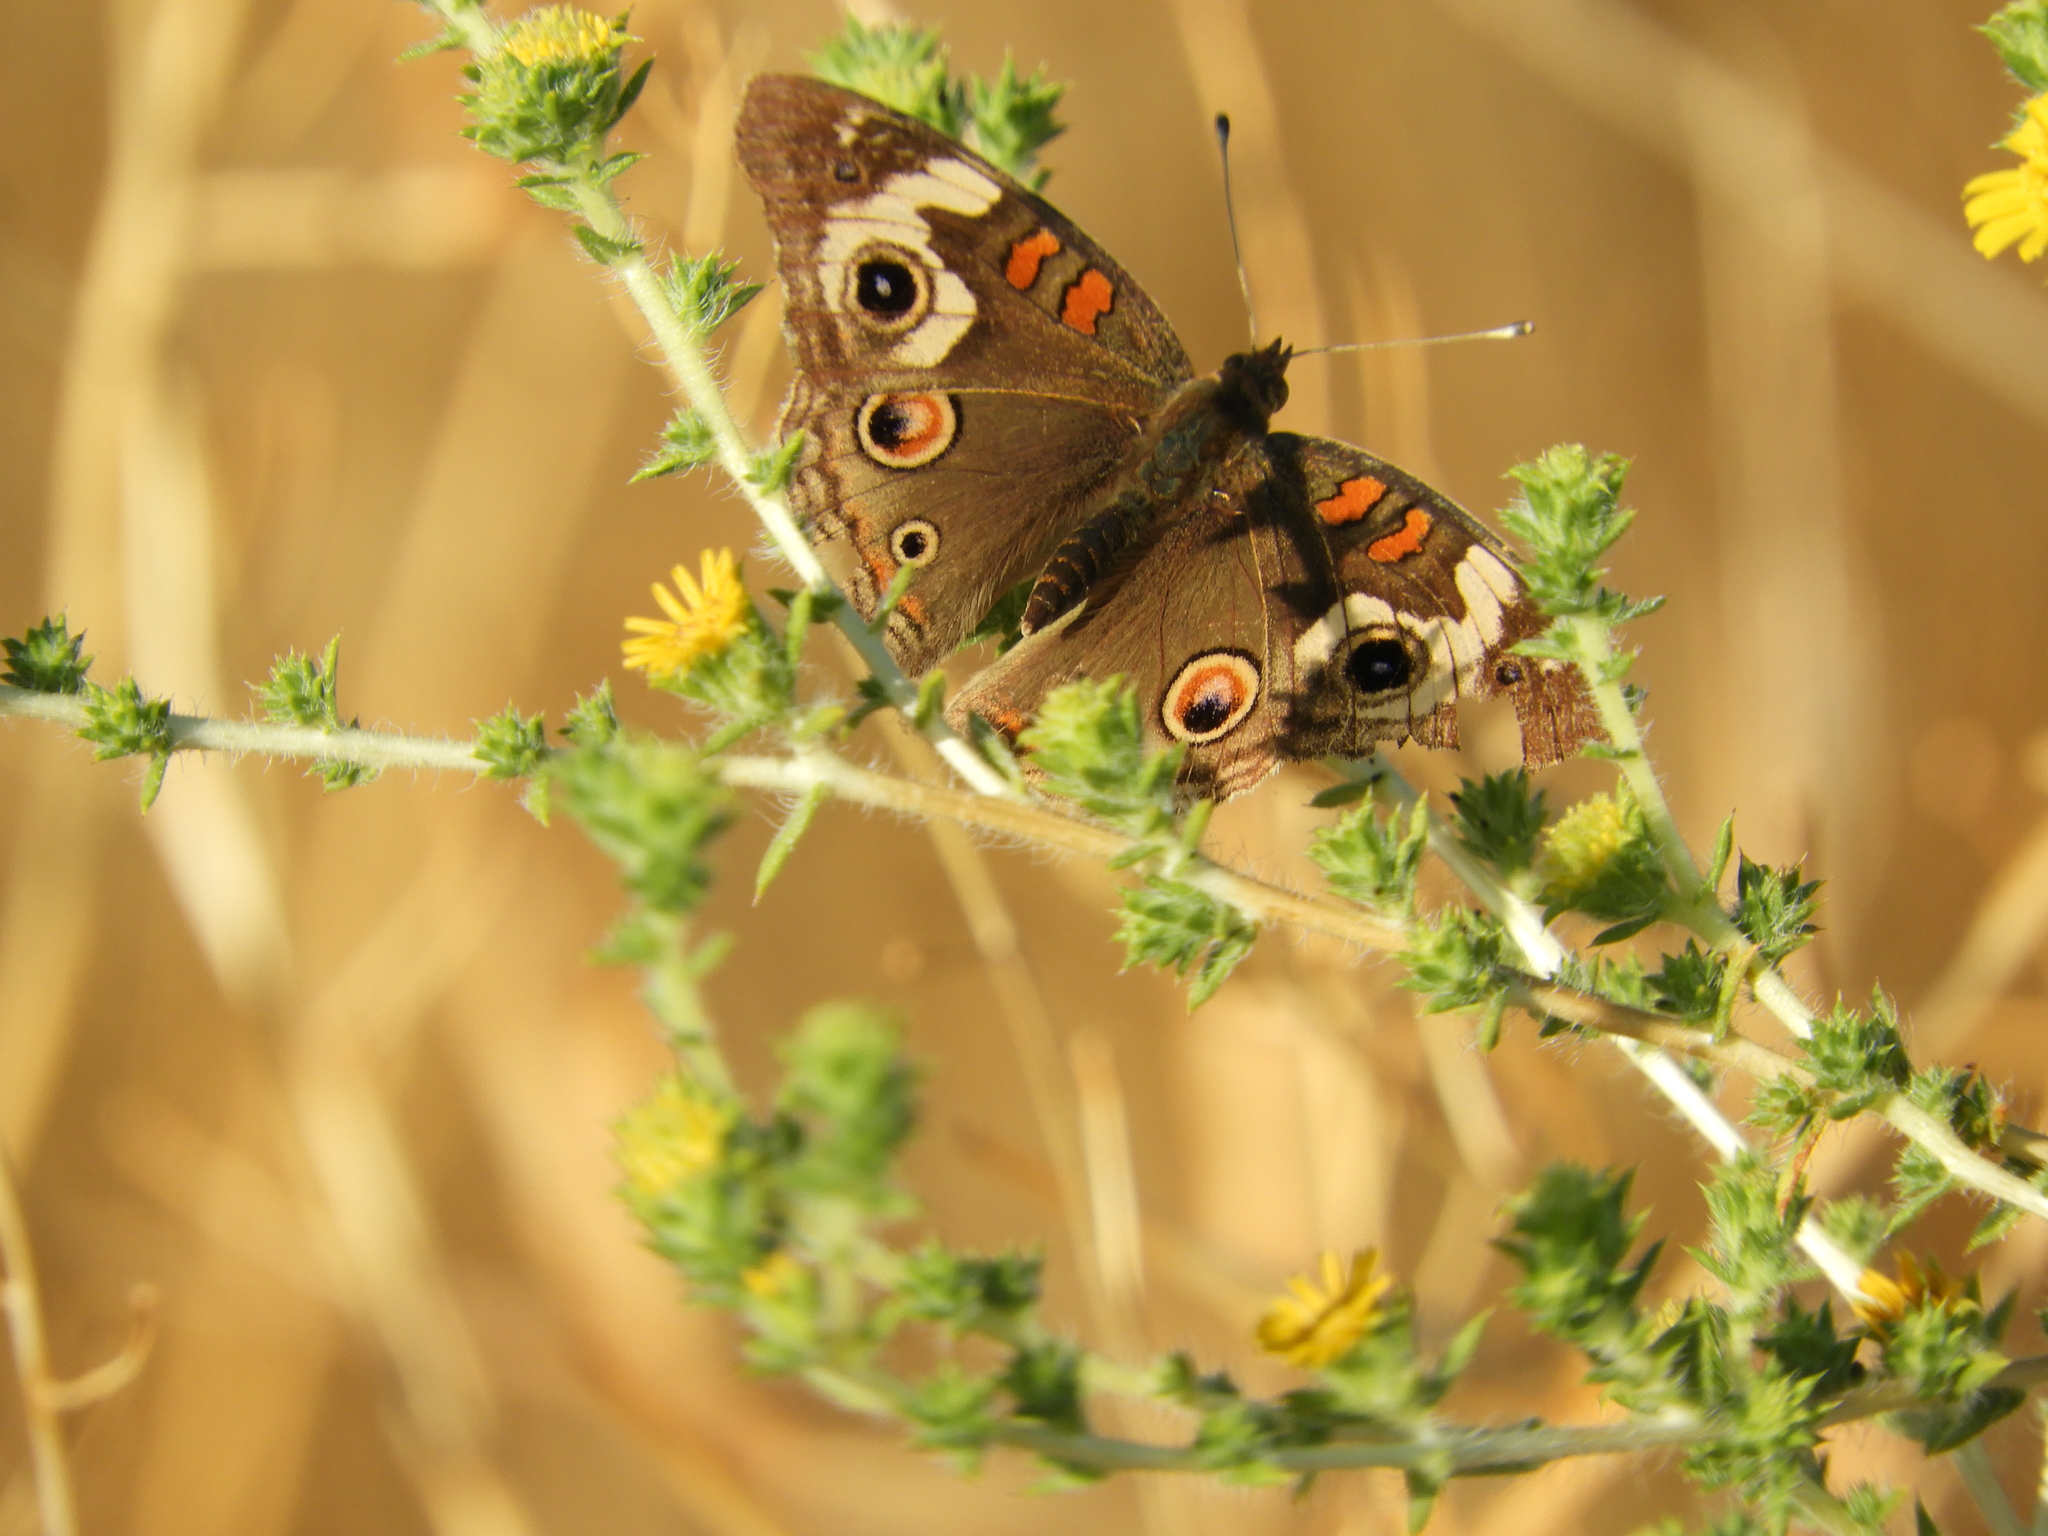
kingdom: Animalia
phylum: Arthropoda
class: Insecta
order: Lepidoptera
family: Nymphalidae
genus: Junonia
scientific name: Junonia grisea
